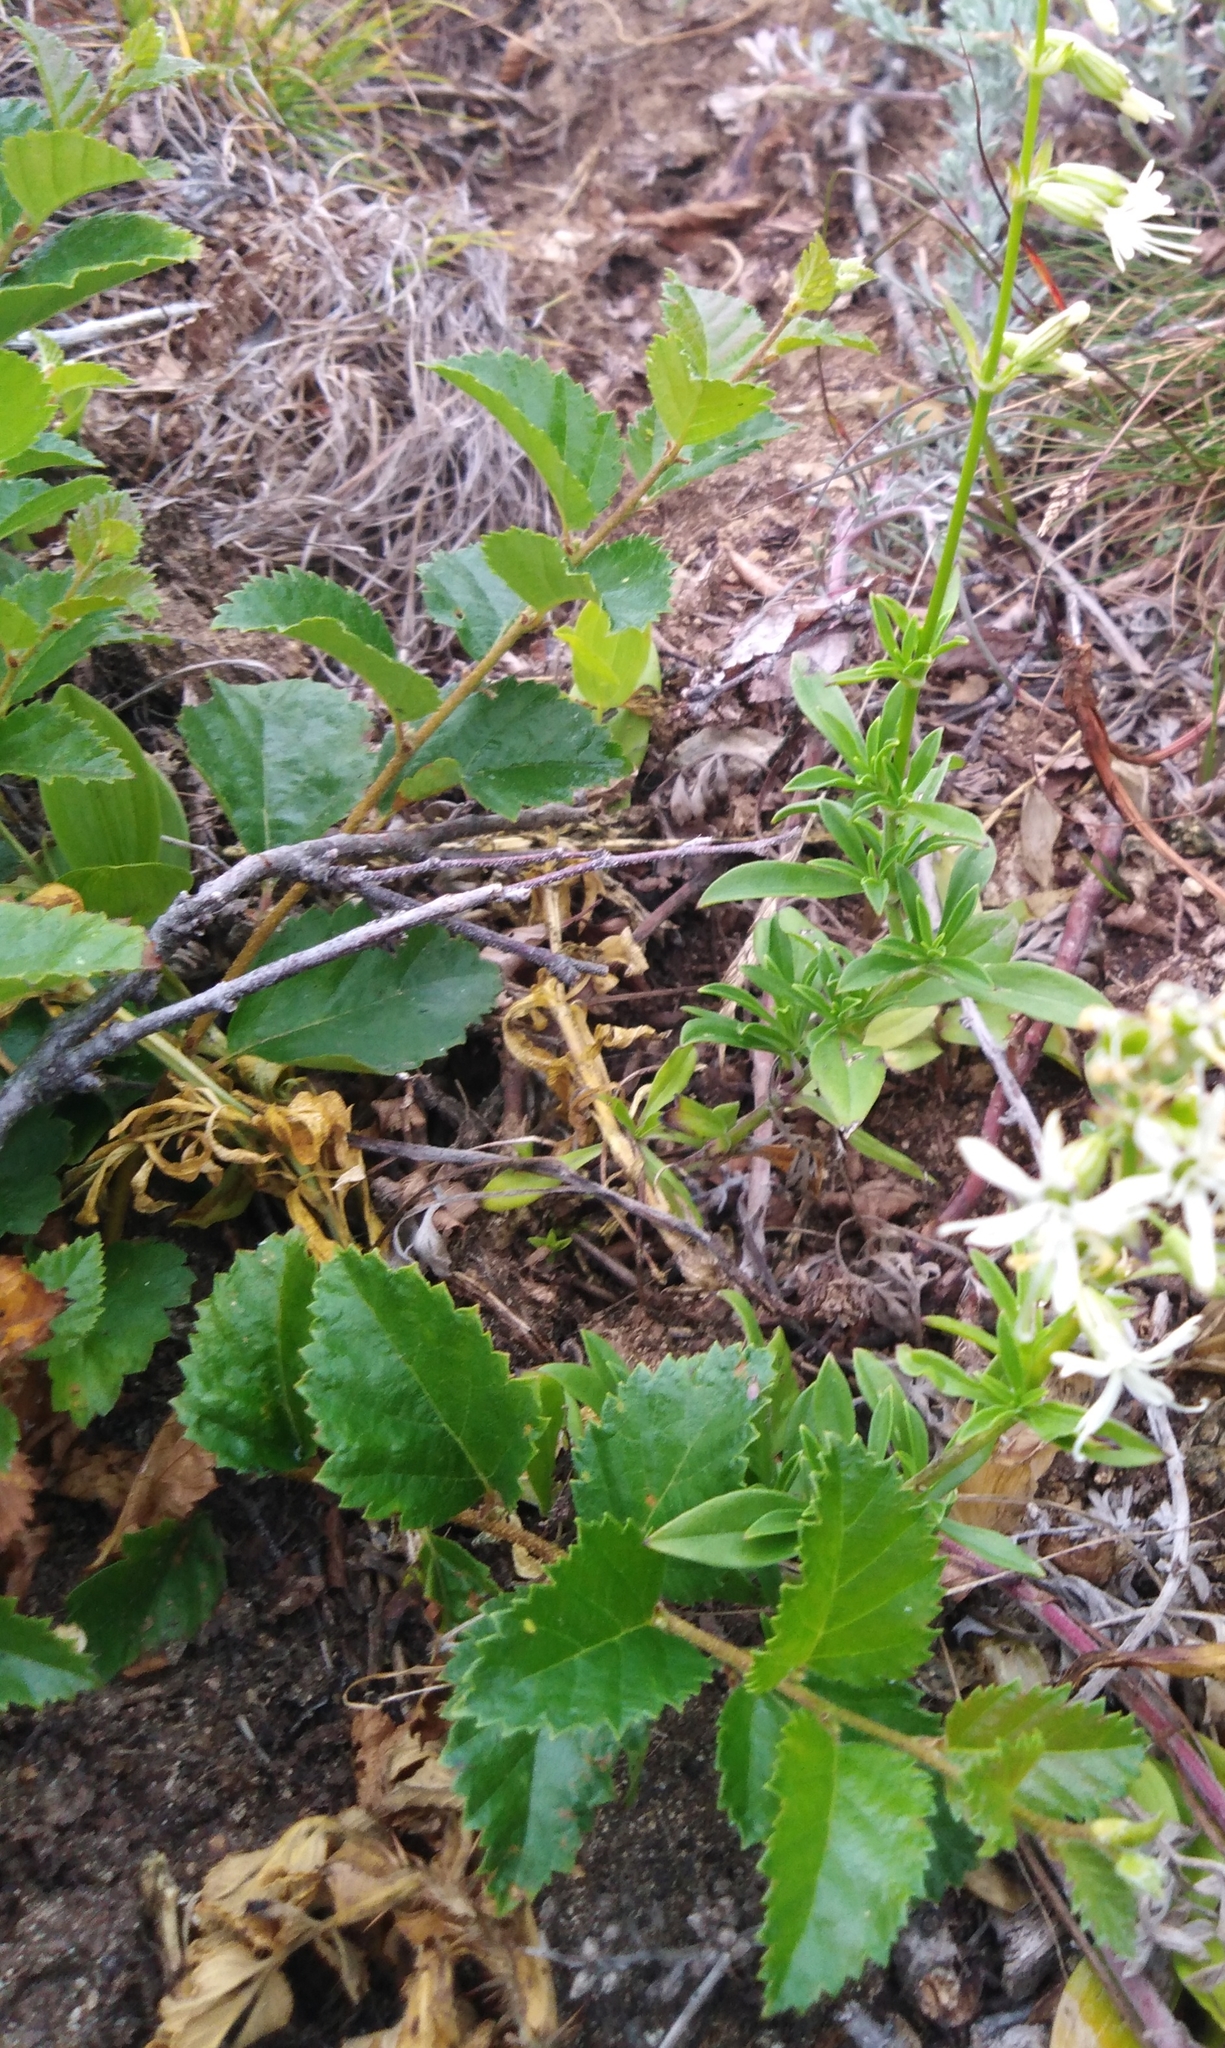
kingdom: Plantae
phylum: Tracheophyta
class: Magnoliopsida
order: Fagales
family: Betulaceae
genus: Betula
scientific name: Betula dauurica
